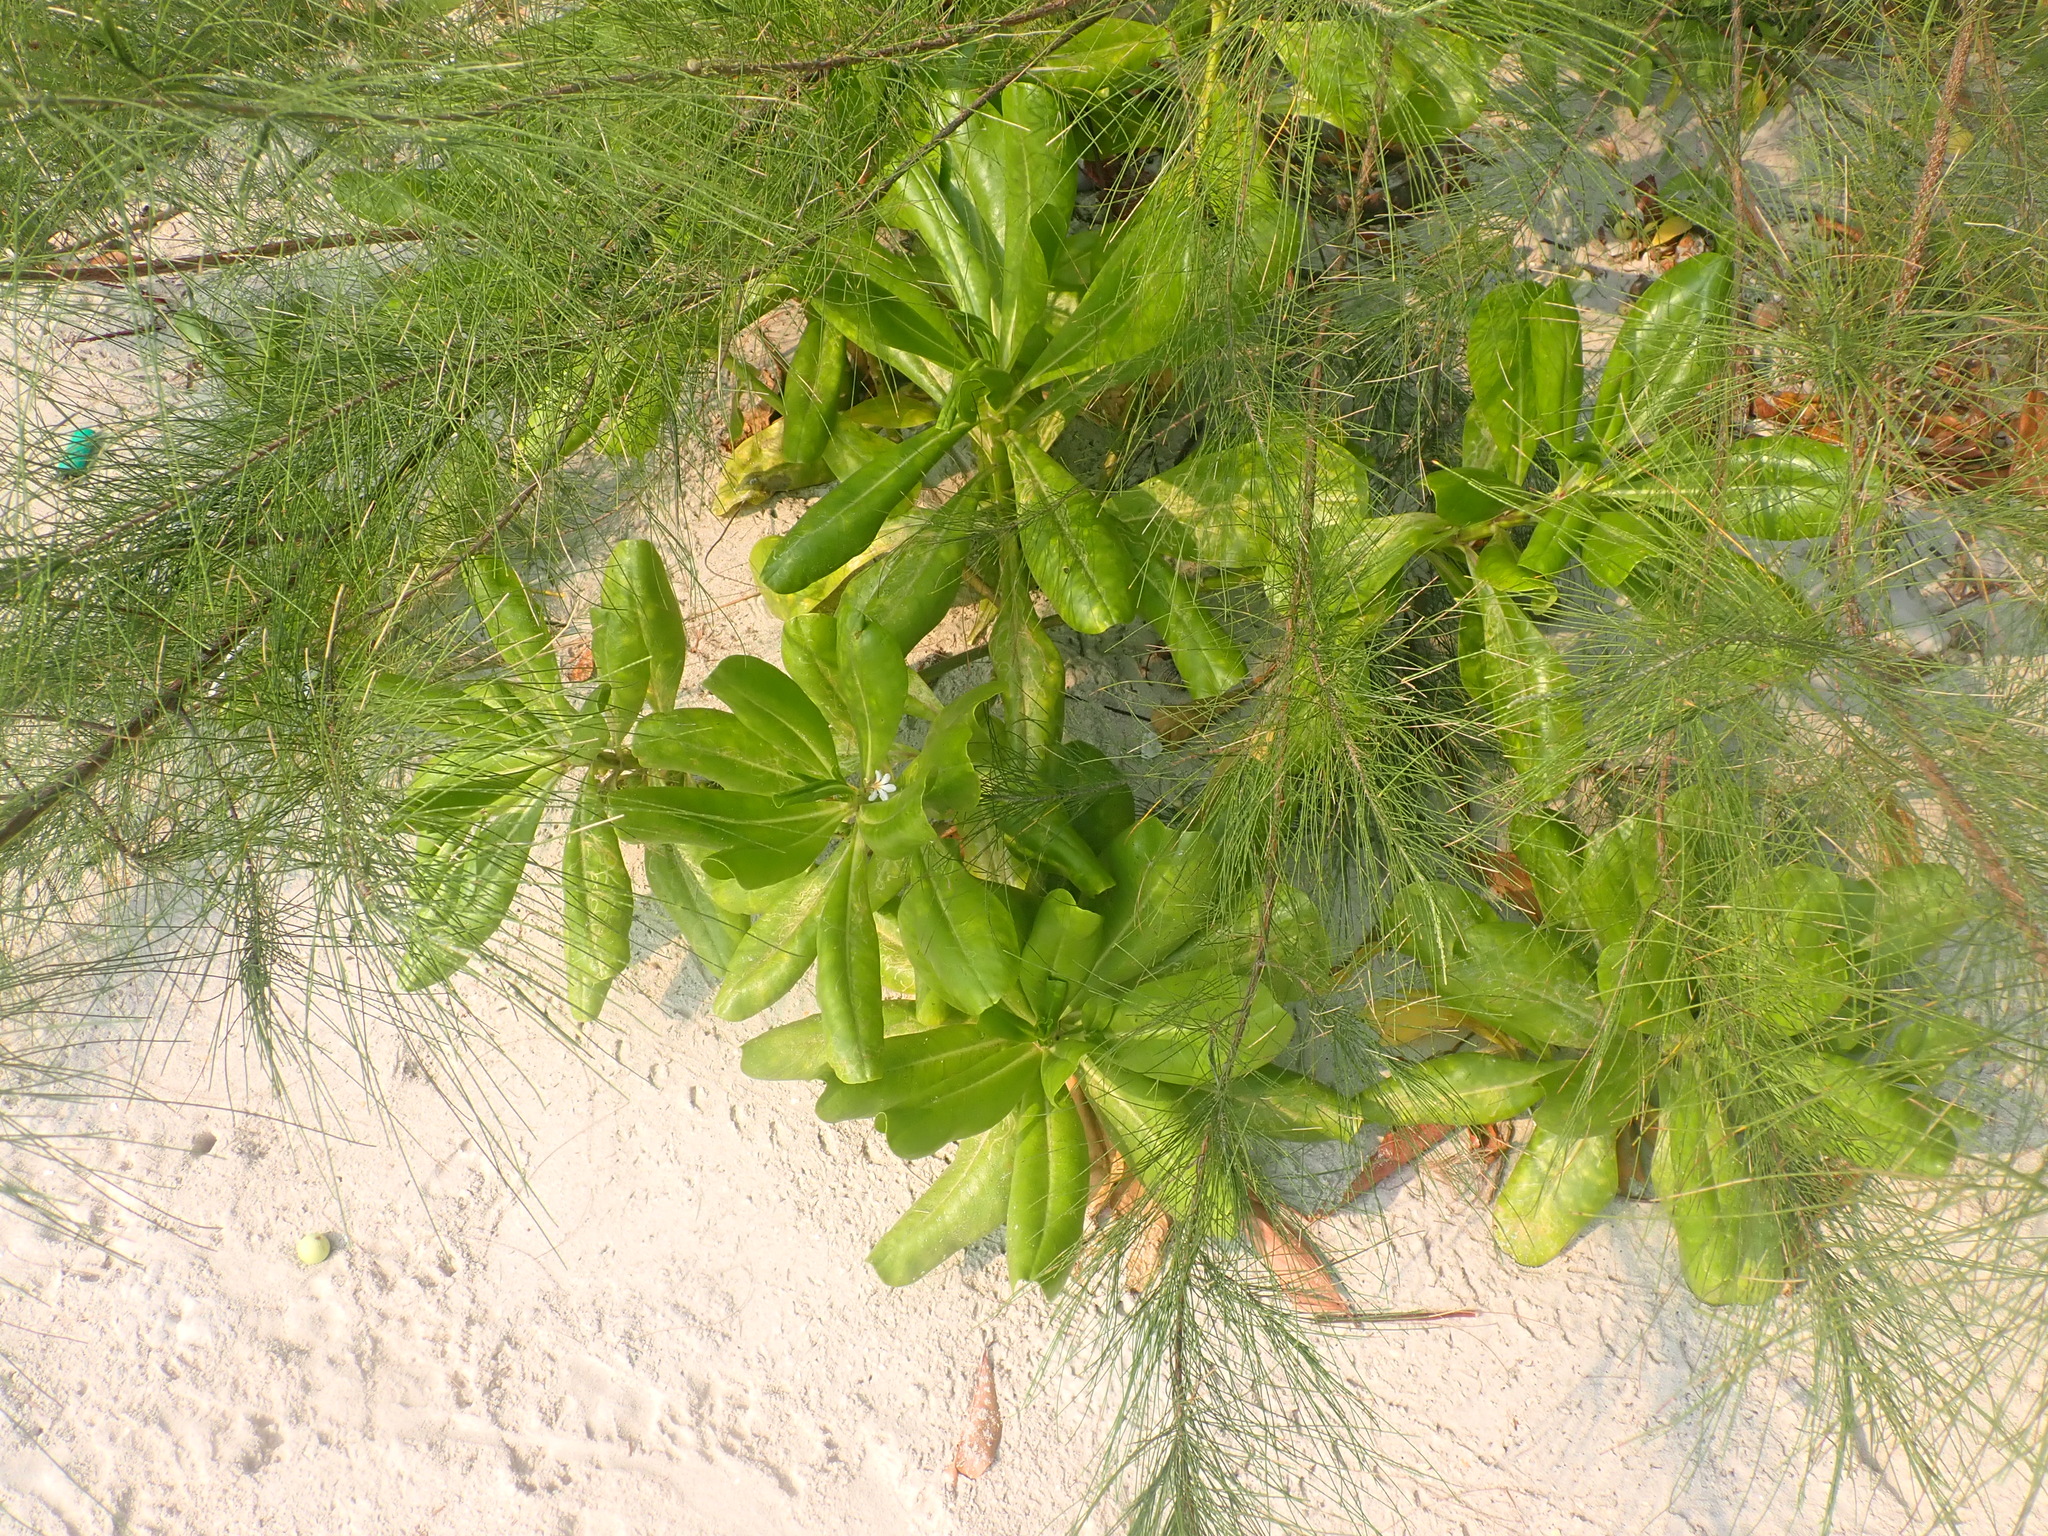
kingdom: Plantae
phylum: Tracheophyta
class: Magnoliopsida
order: Asterales
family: Goodeniaceae
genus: Scaevola
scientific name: Scaevola taccada
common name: Sea lettucetree
